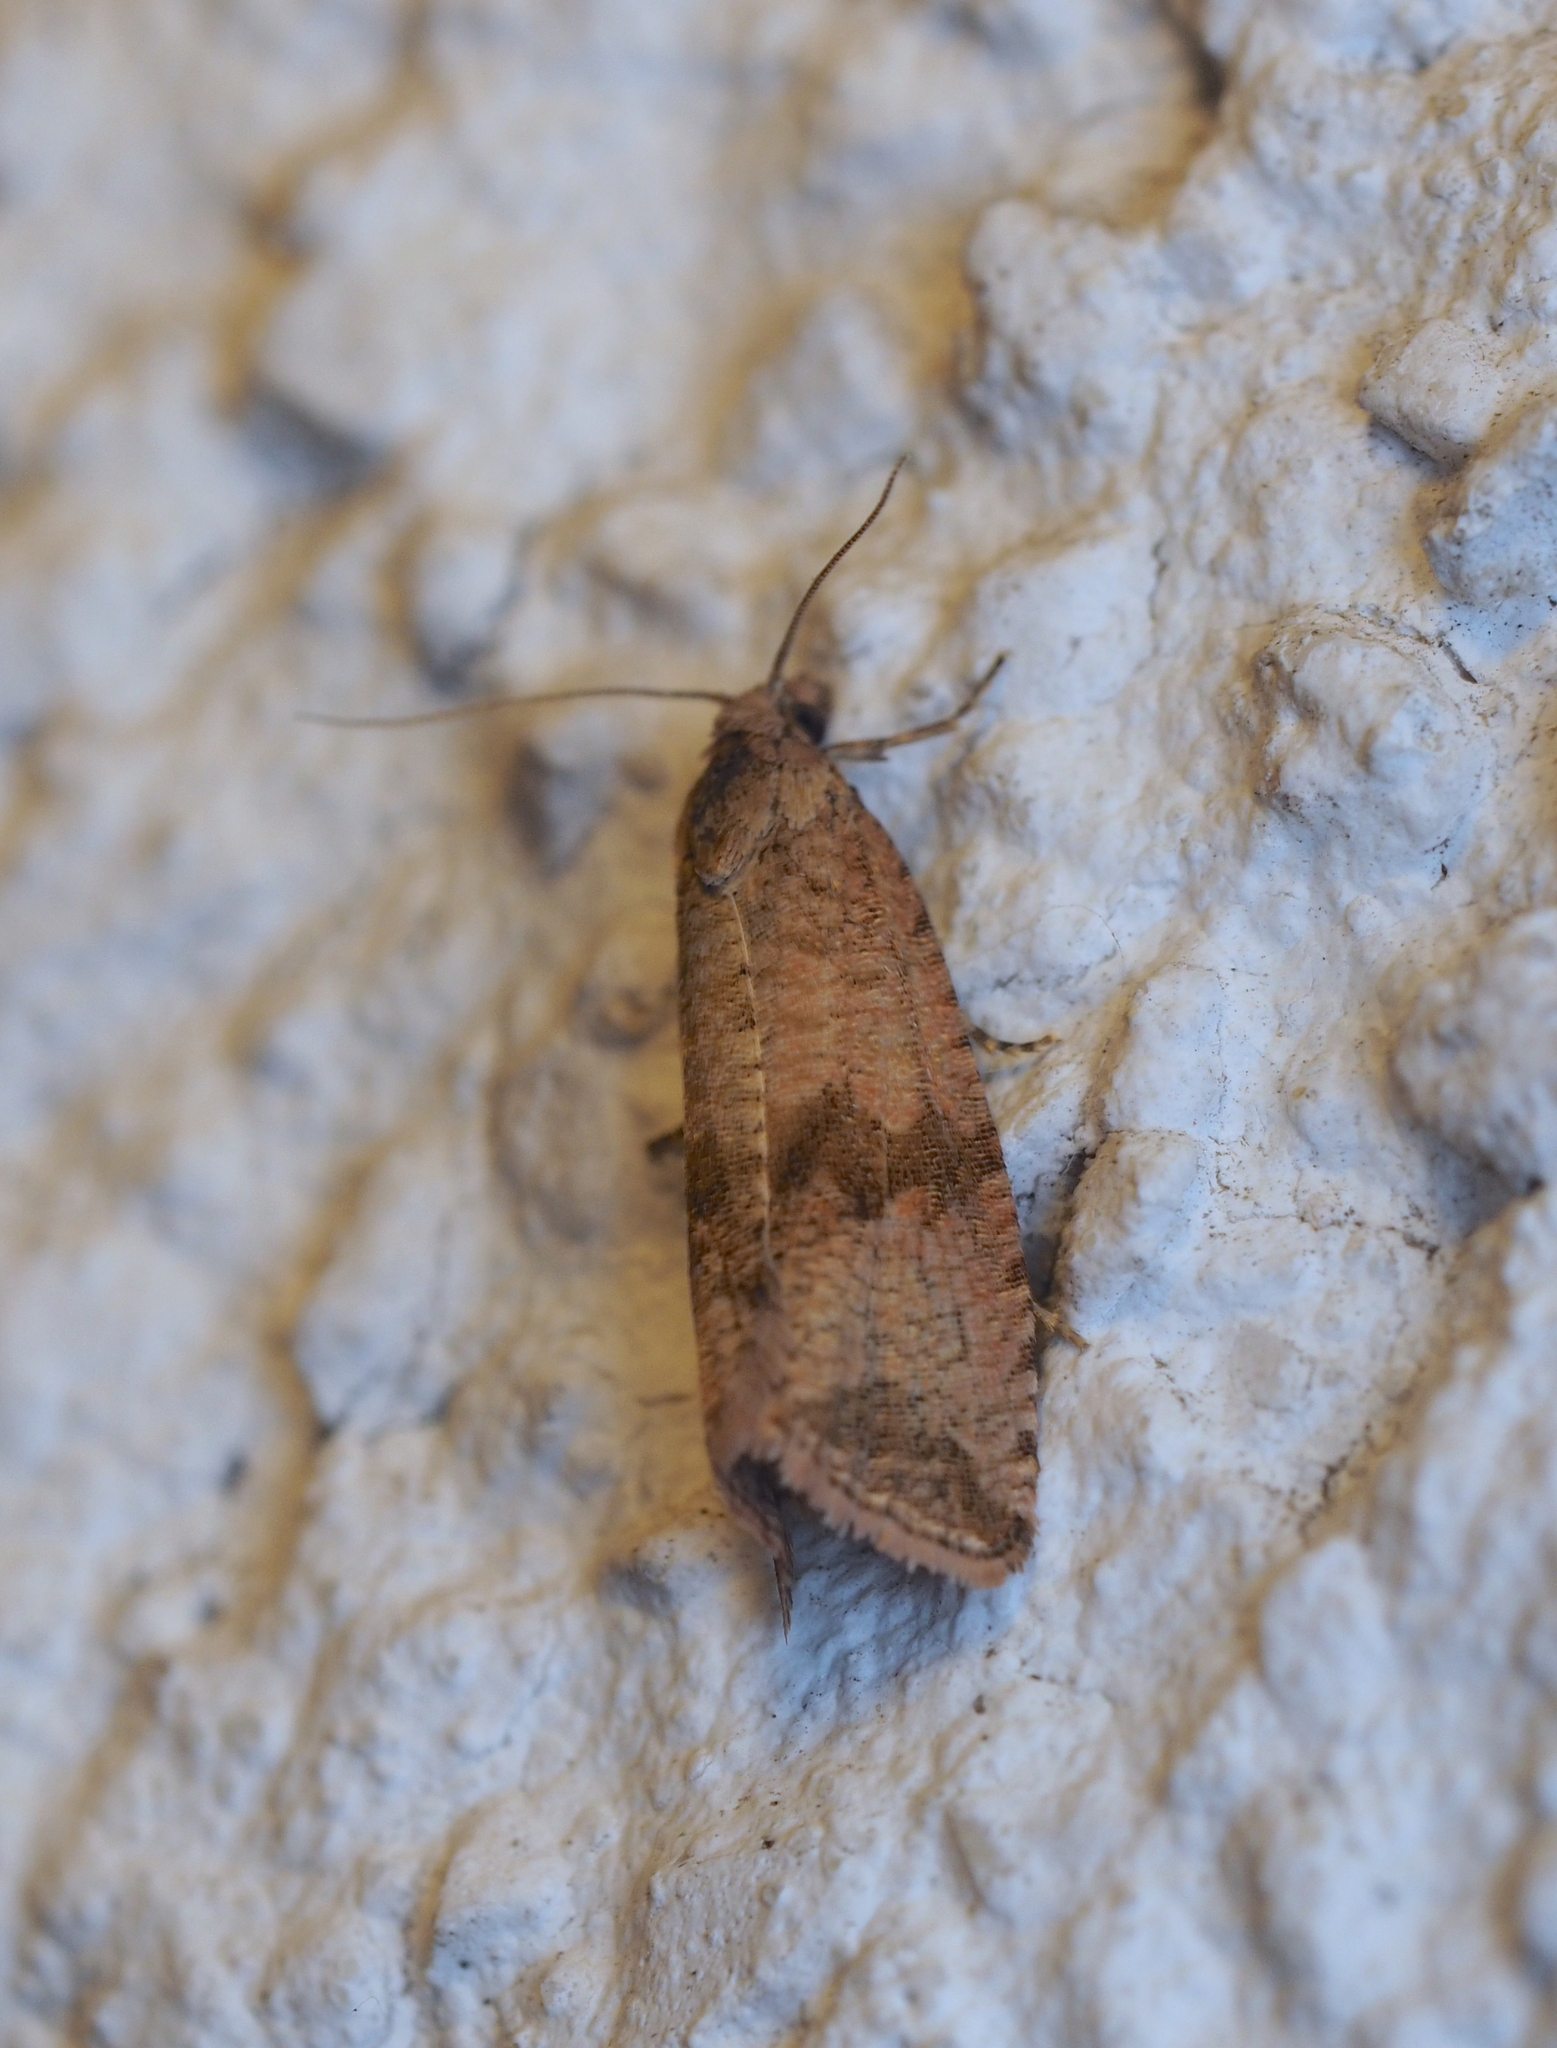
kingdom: Animalia
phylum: Arthropoda
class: Insecta
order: Lepidoptera
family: Tortricidae
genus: Celypha
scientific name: Celypha striana
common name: Barred marble
